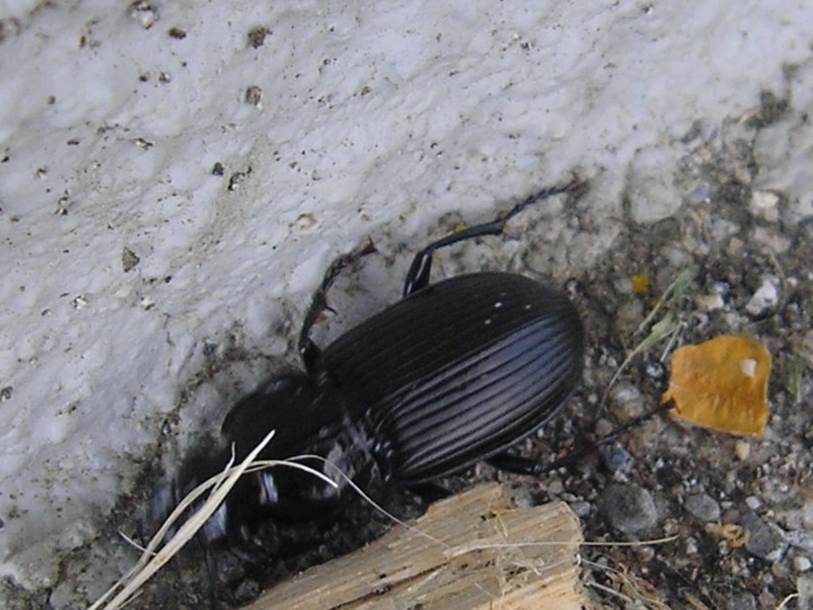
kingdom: Animalia
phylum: Arthropoda
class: Insecta
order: Coleoptera
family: Carabidae
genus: Pterostichus
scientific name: Pterostichus melanarius
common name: European dark harp ground beetle
